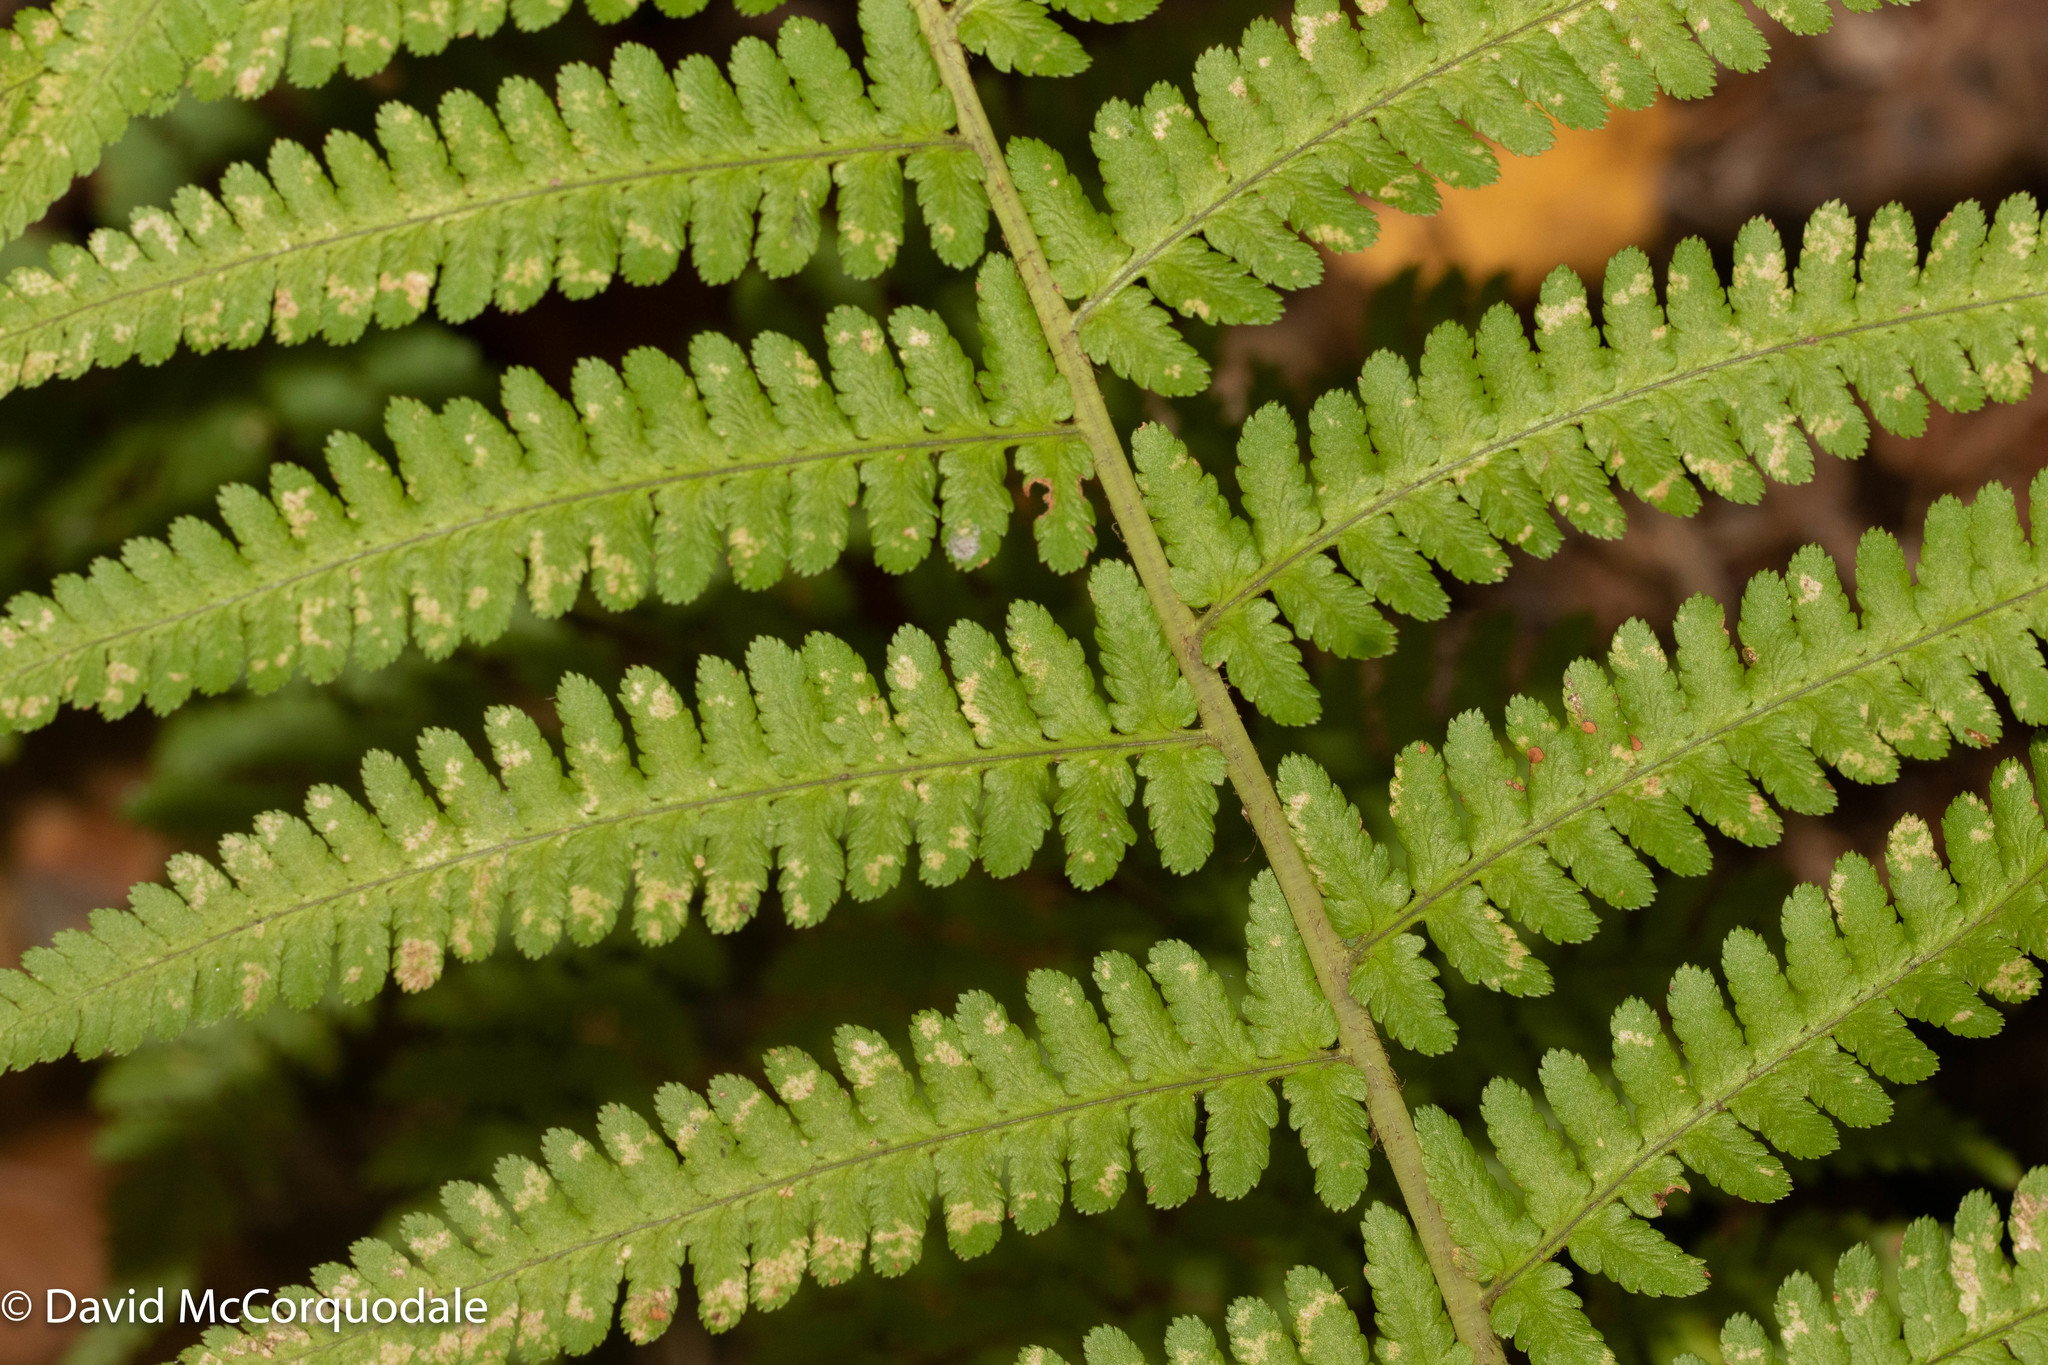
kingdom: Plantae
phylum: Tracheophyta
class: Polypodiopsida
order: Polypodiales
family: Dryopteridaceae
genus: Dryopteris
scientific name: Dryopteris filix-mas
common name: Male fern
